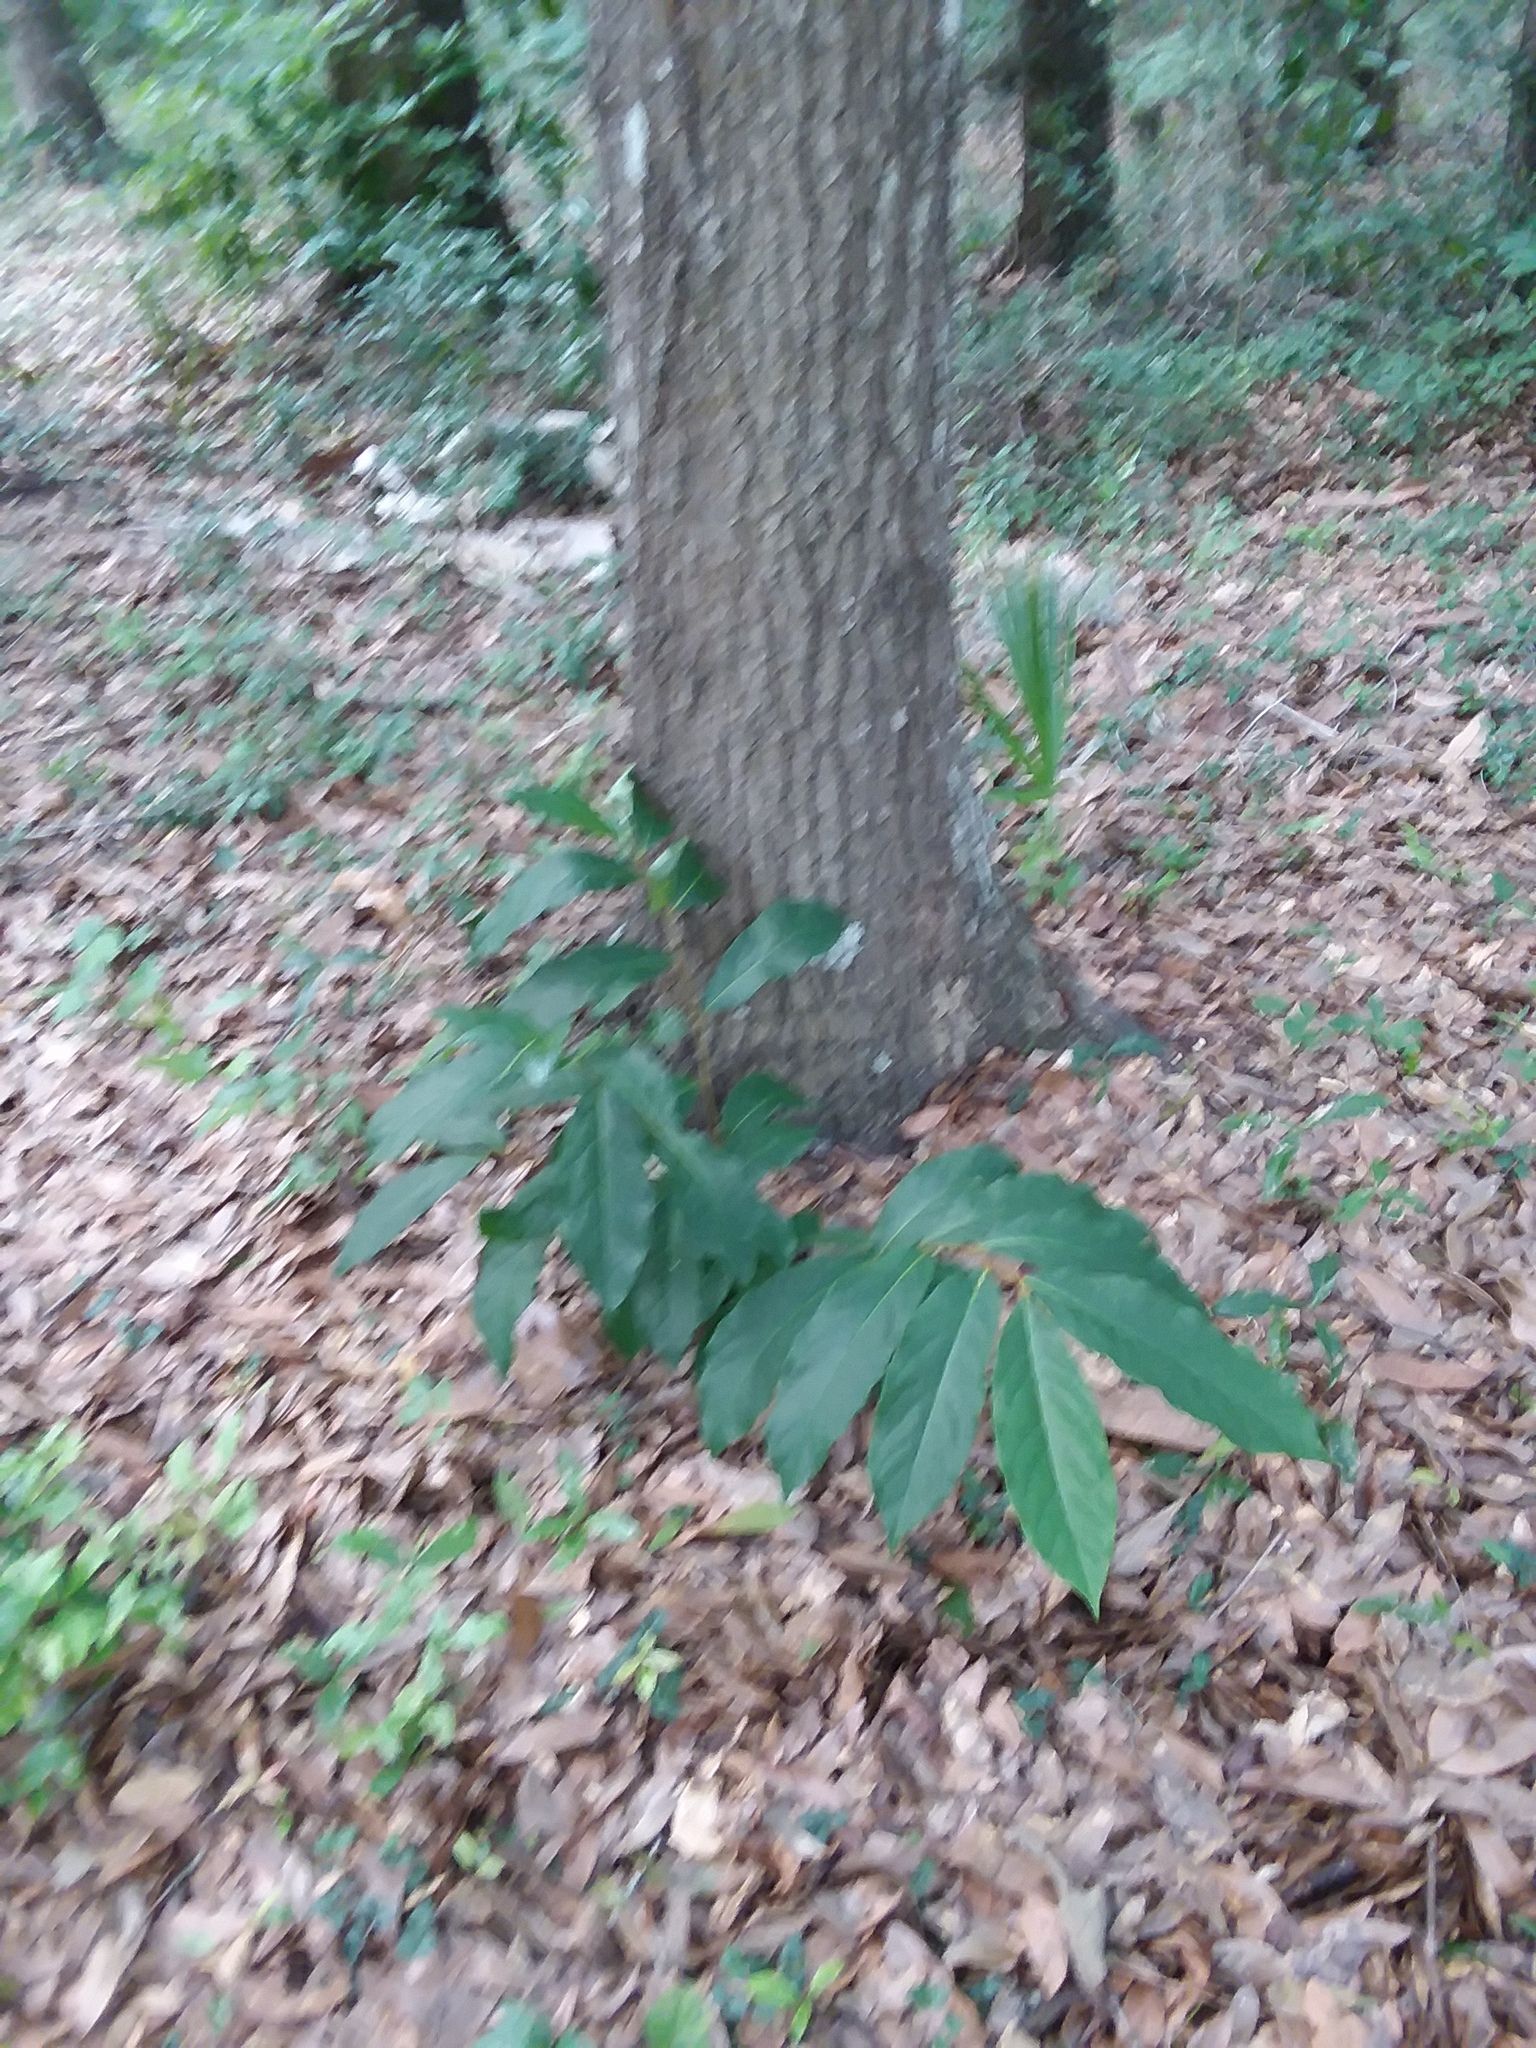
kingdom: Plantae
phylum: Tracheophyta
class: Magnoliopsida
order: Magnoliales
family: Annonaceae
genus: Asimina
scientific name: Asimina parviflora
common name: Dwarf pawpaw
